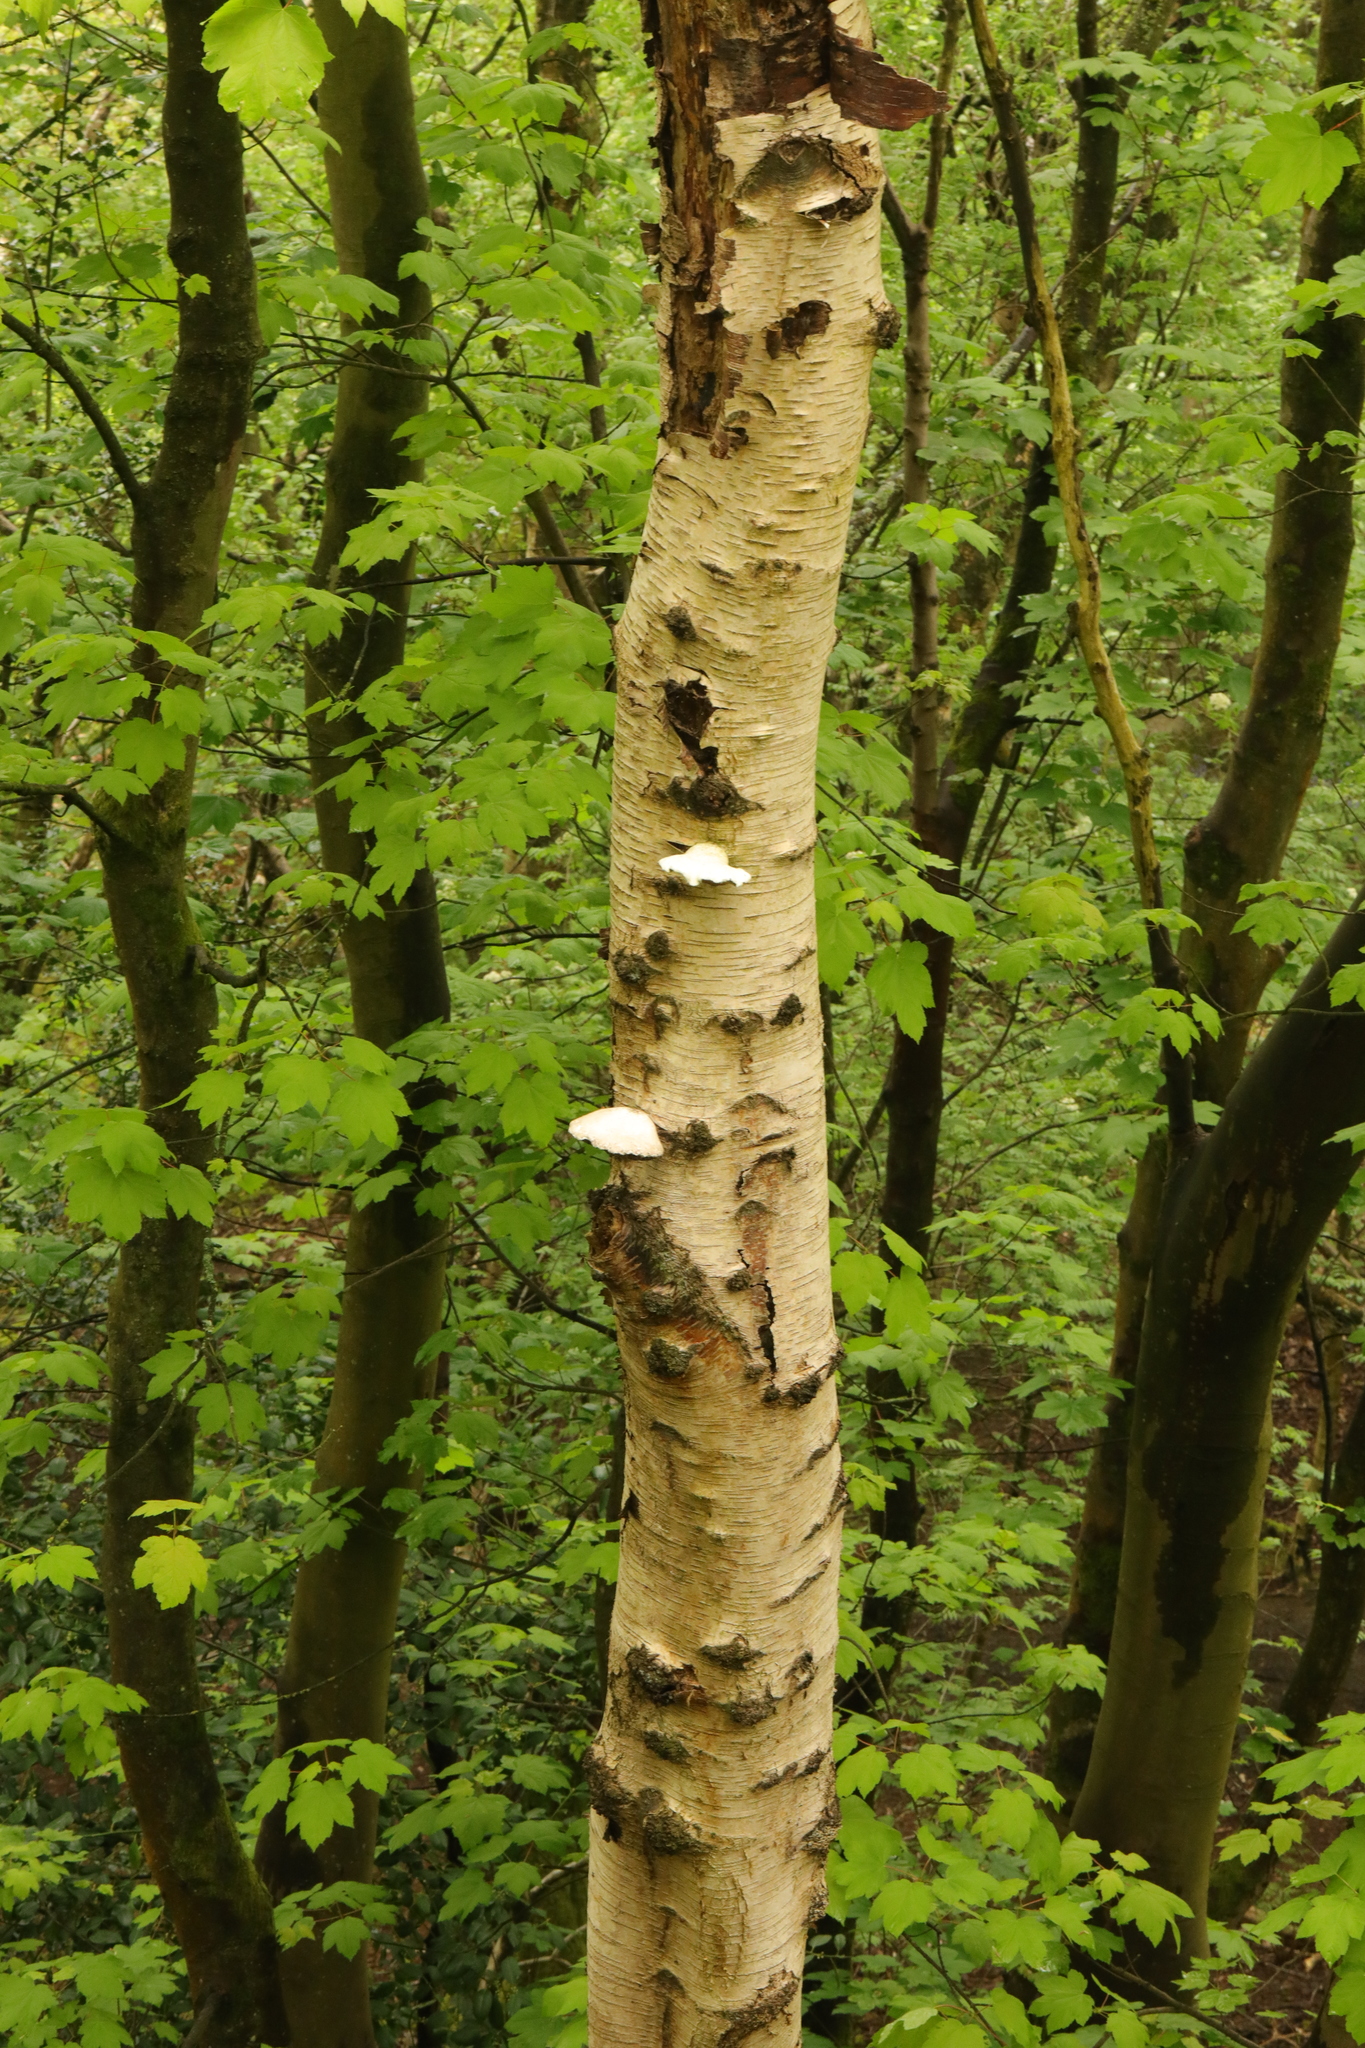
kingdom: Fungi
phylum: Basidiomycota
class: Agaricomycetes
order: Polyporales
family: Fomitopsidaceae
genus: Fomitopsis
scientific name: Fomitopsis betulina
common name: Birch polypore
